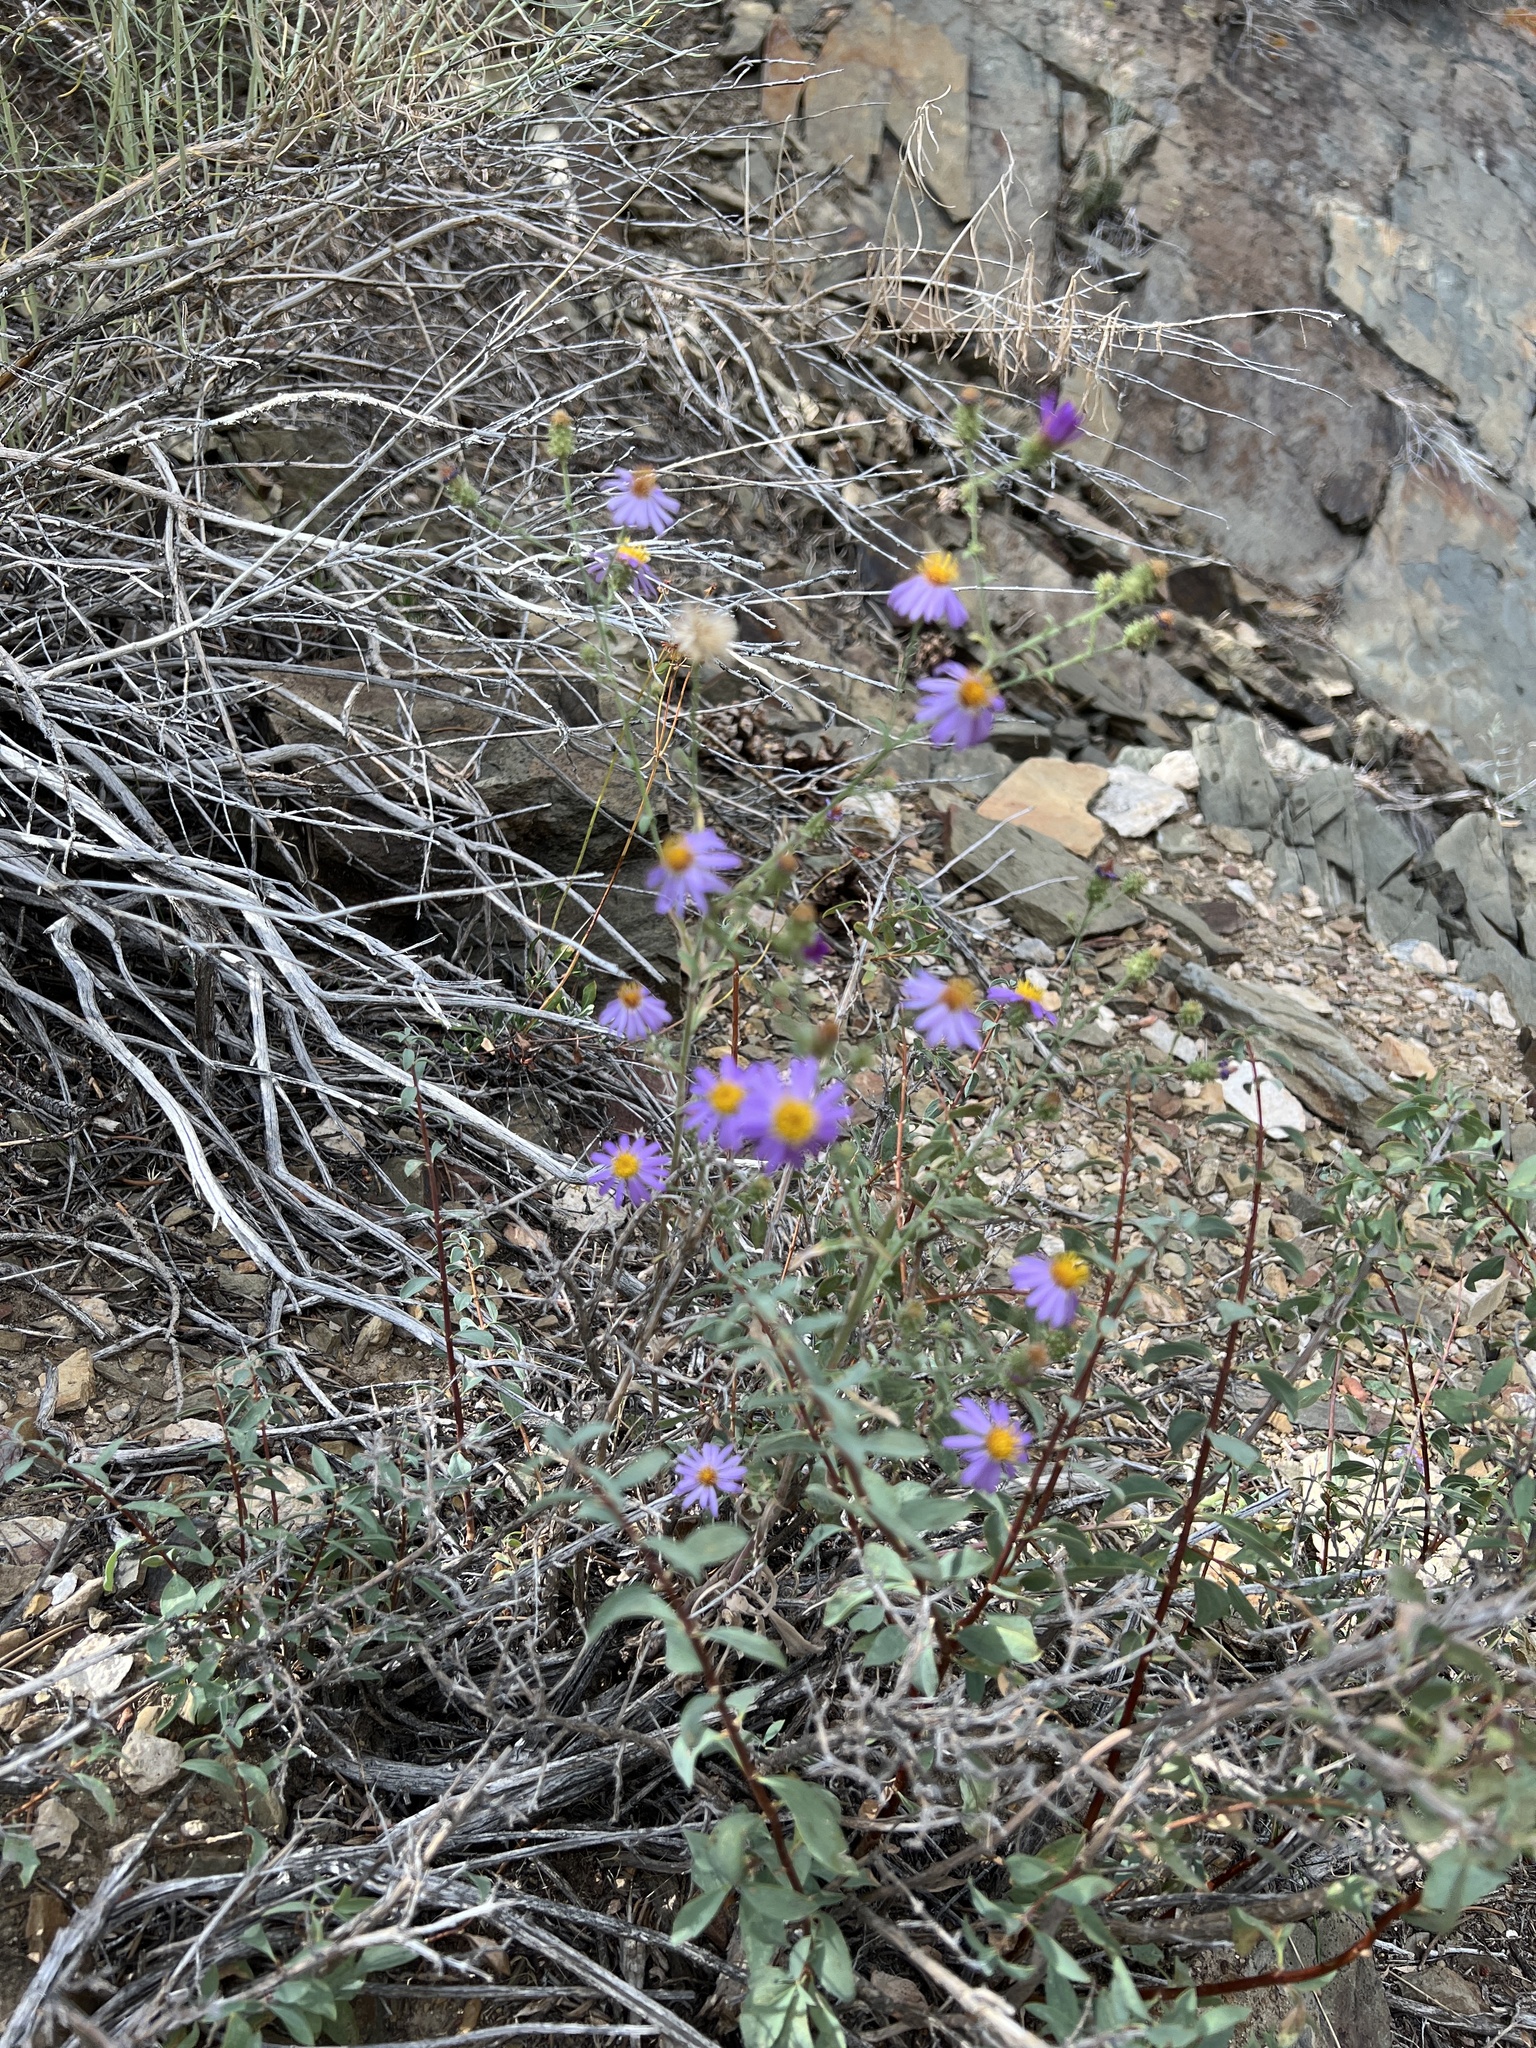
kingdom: Plantae
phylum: Tracheophyta
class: Magnoliopsida
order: Asterales
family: Asteraceae
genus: Dieteria
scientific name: Dieteria canescens
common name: Hoary-aster
